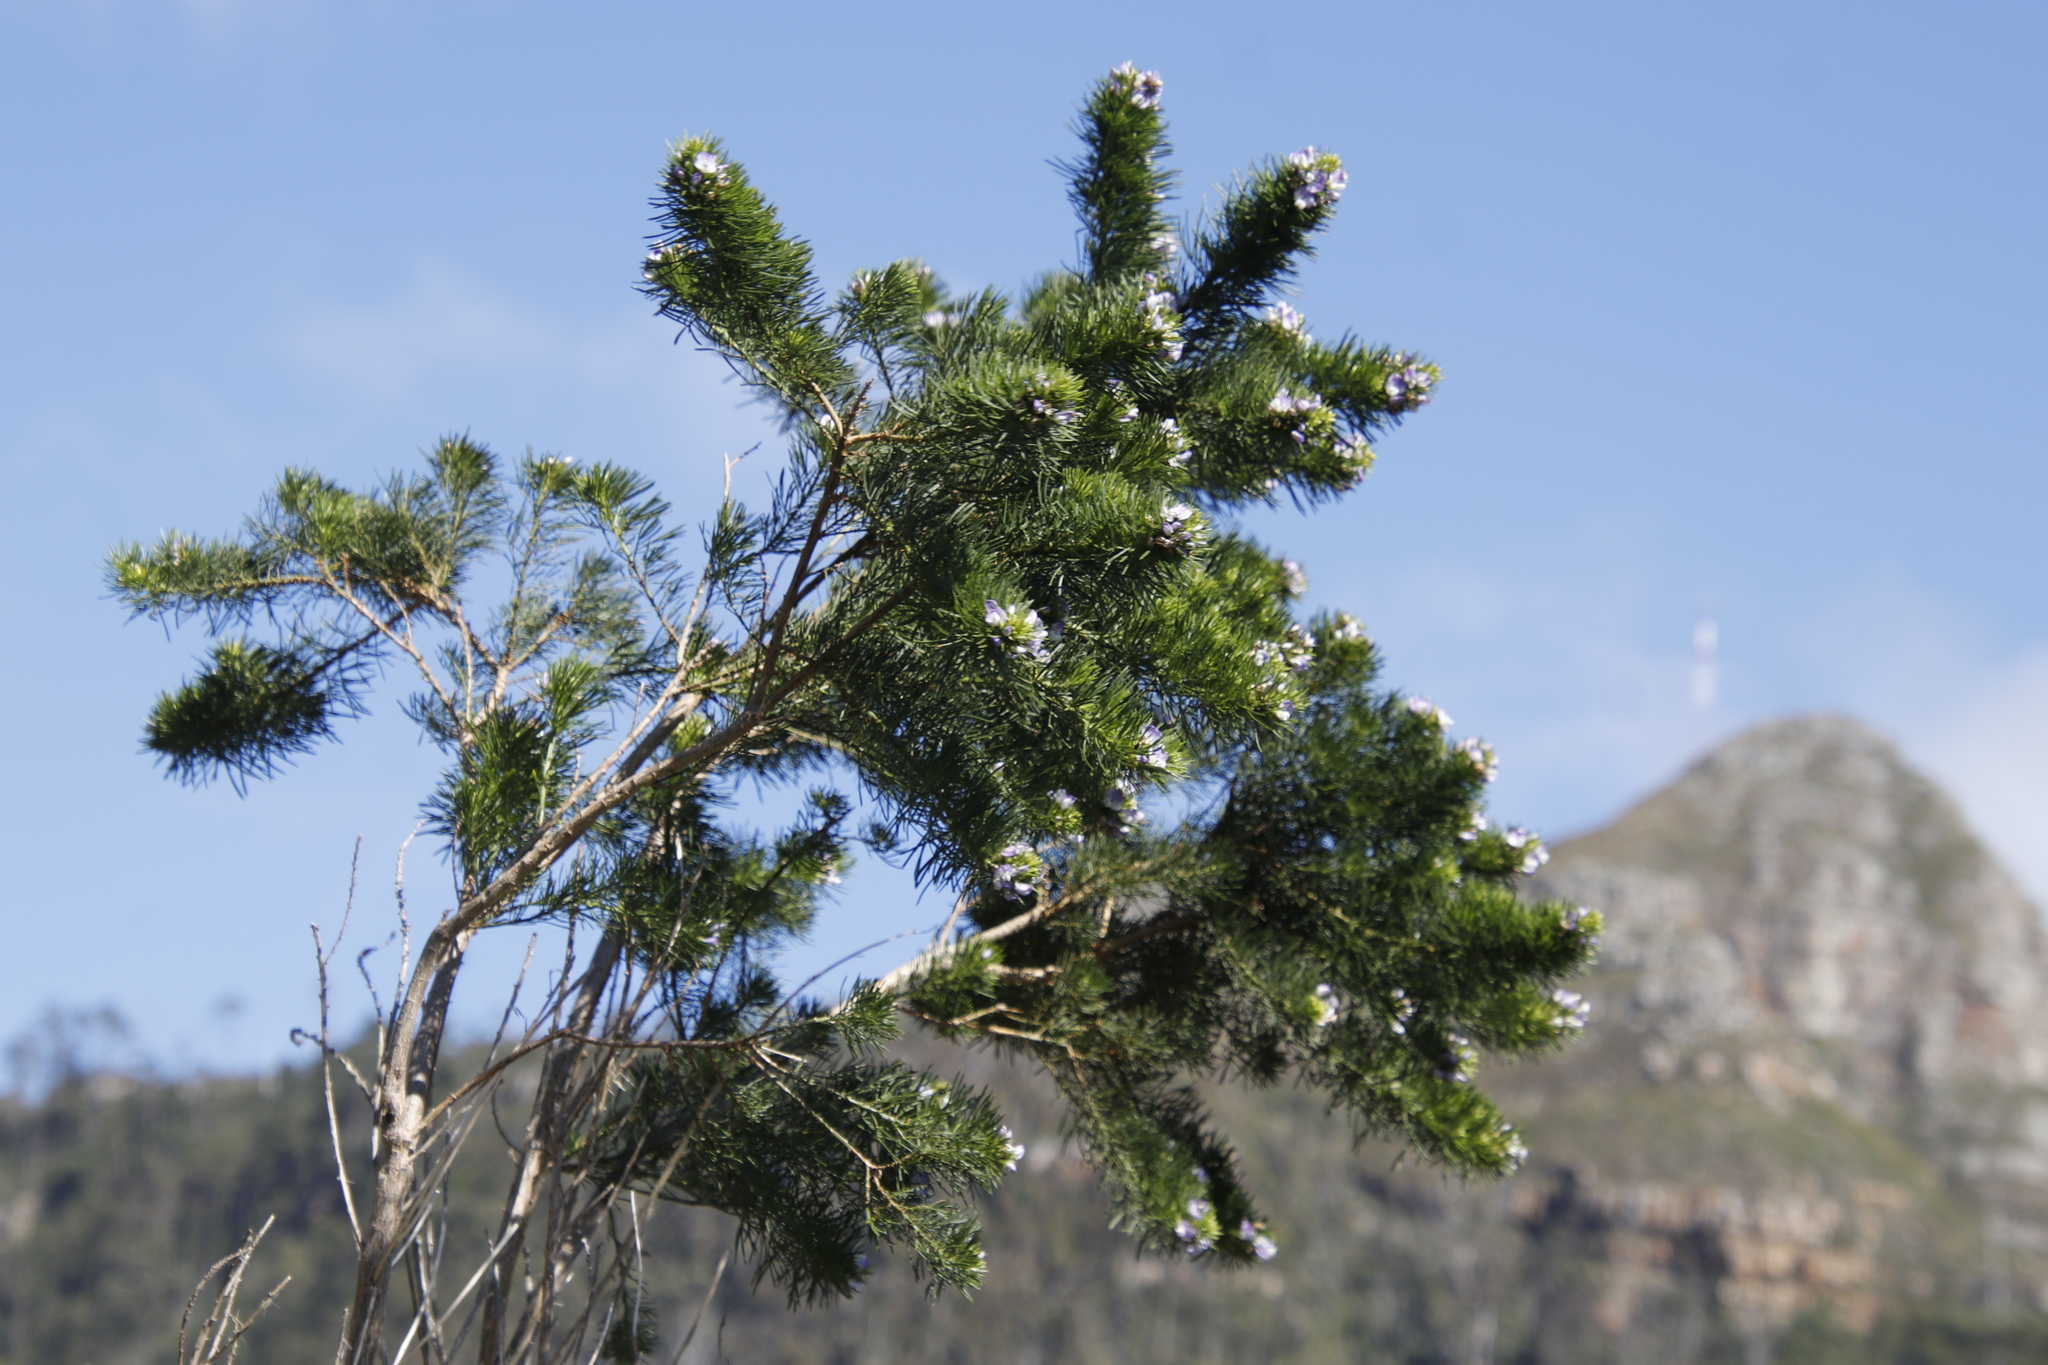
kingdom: Plantae
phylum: Tracheophyta
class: Magnoliopsida
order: Fabales
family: Fabaceae
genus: Psoralea
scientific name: Psoralea pinnata
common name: African scurfpea
